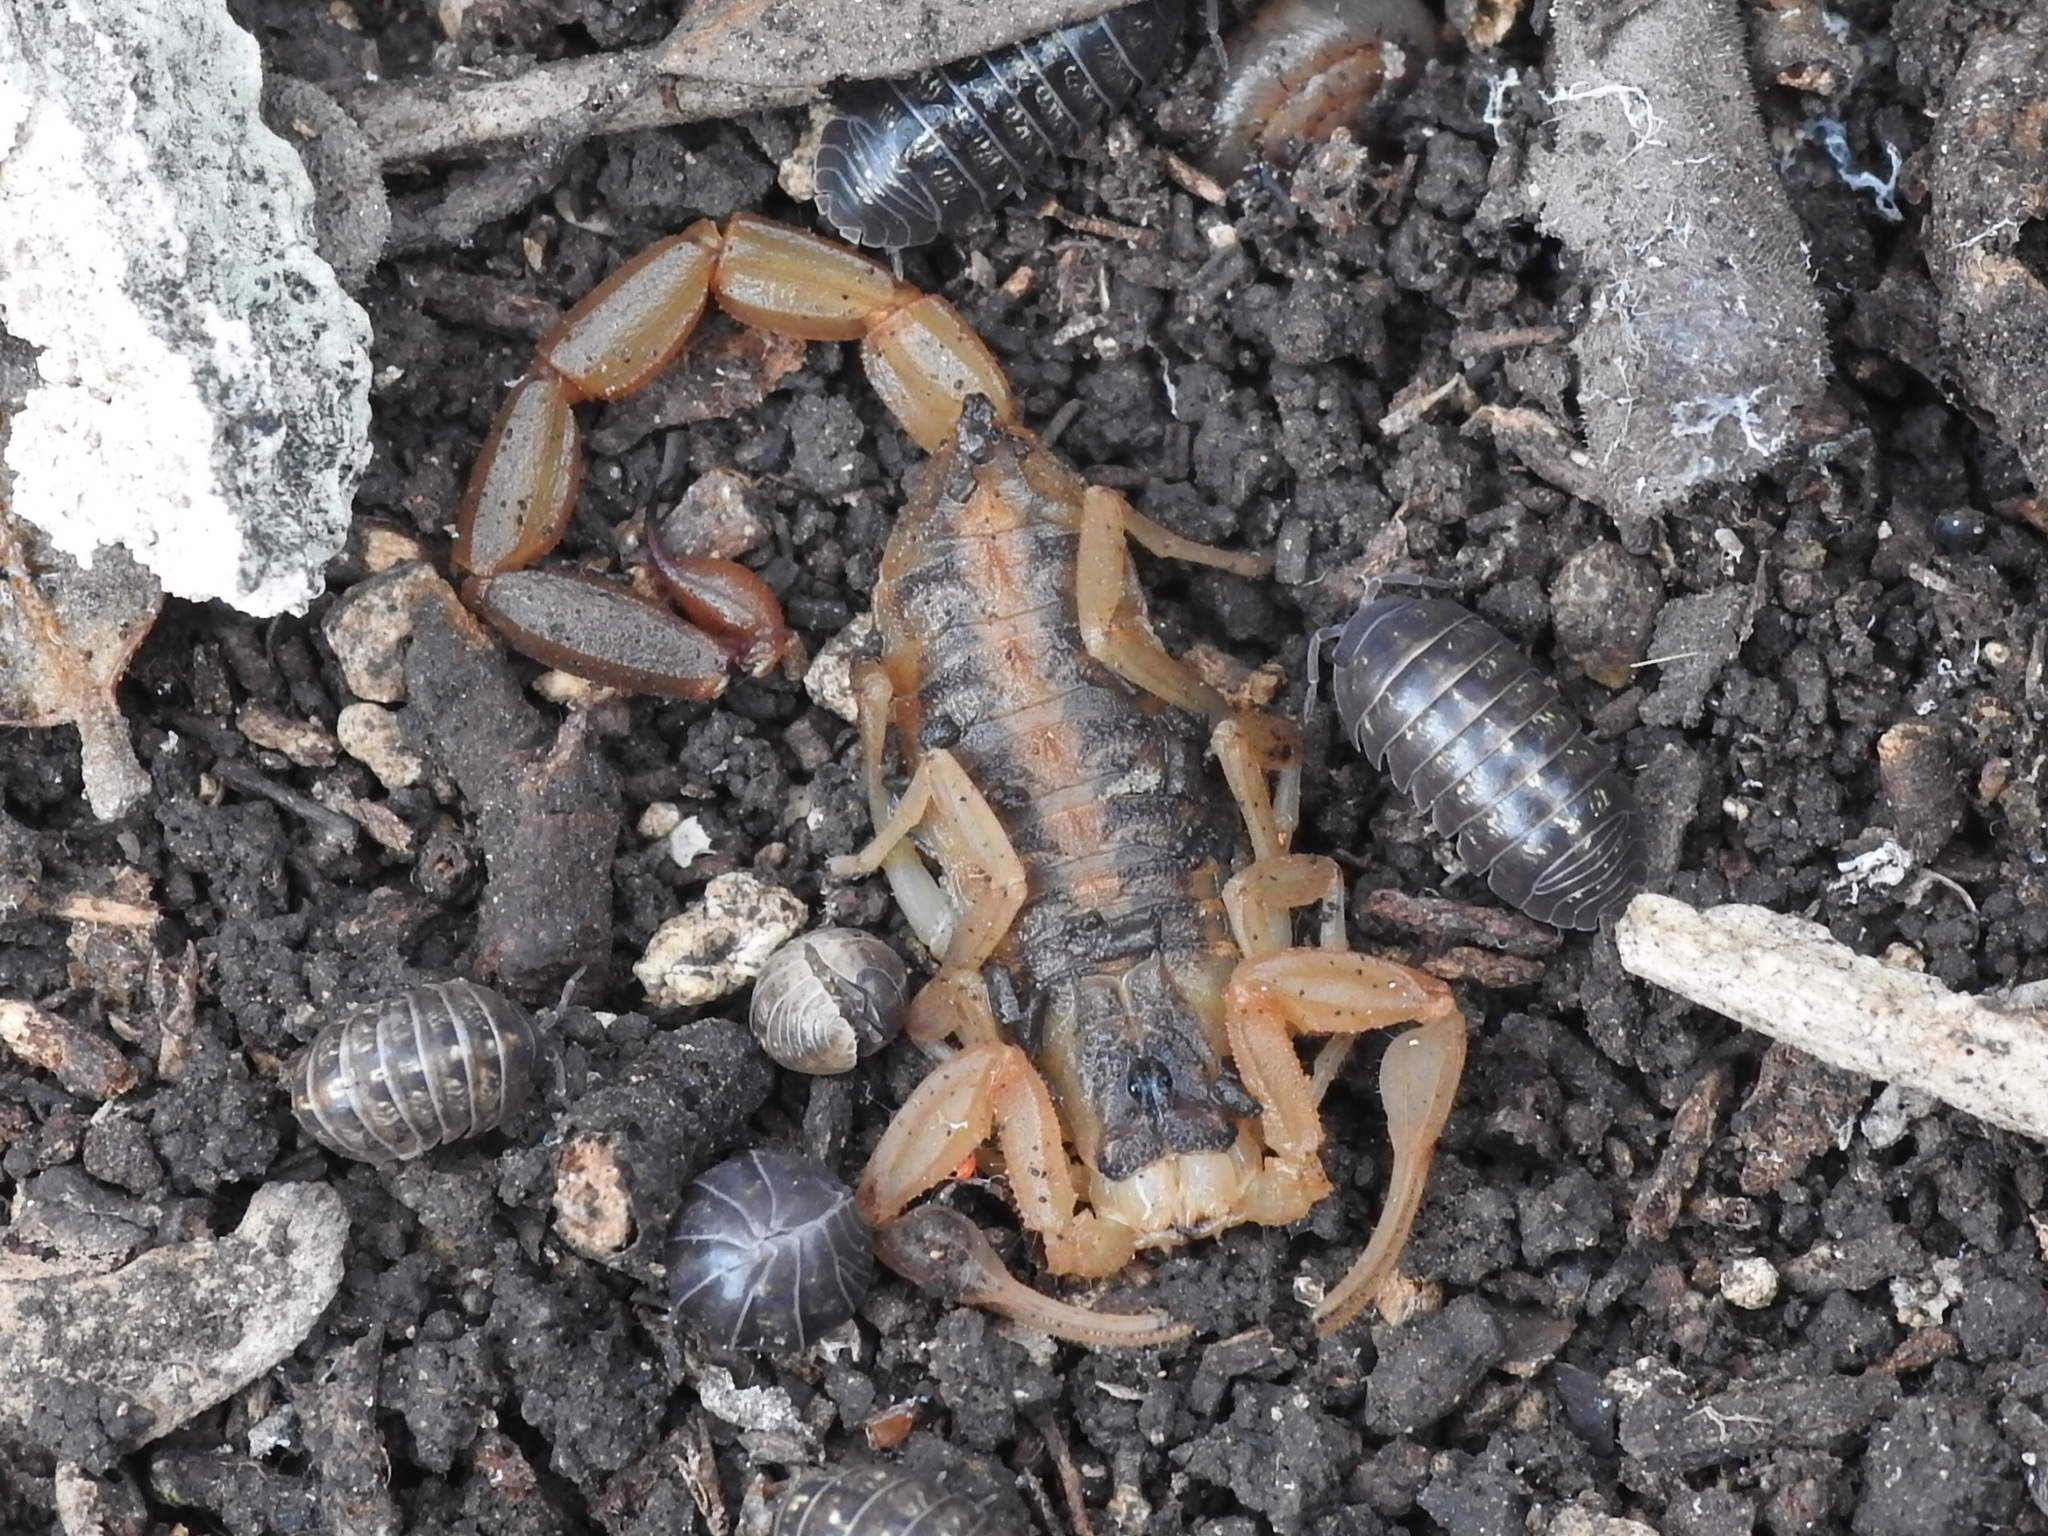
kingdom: Animalia
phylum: Arthropoda
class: Arachnida
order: Scorpiones
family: Buthidae
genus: Centruroides
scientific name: Centruroides vittatus
